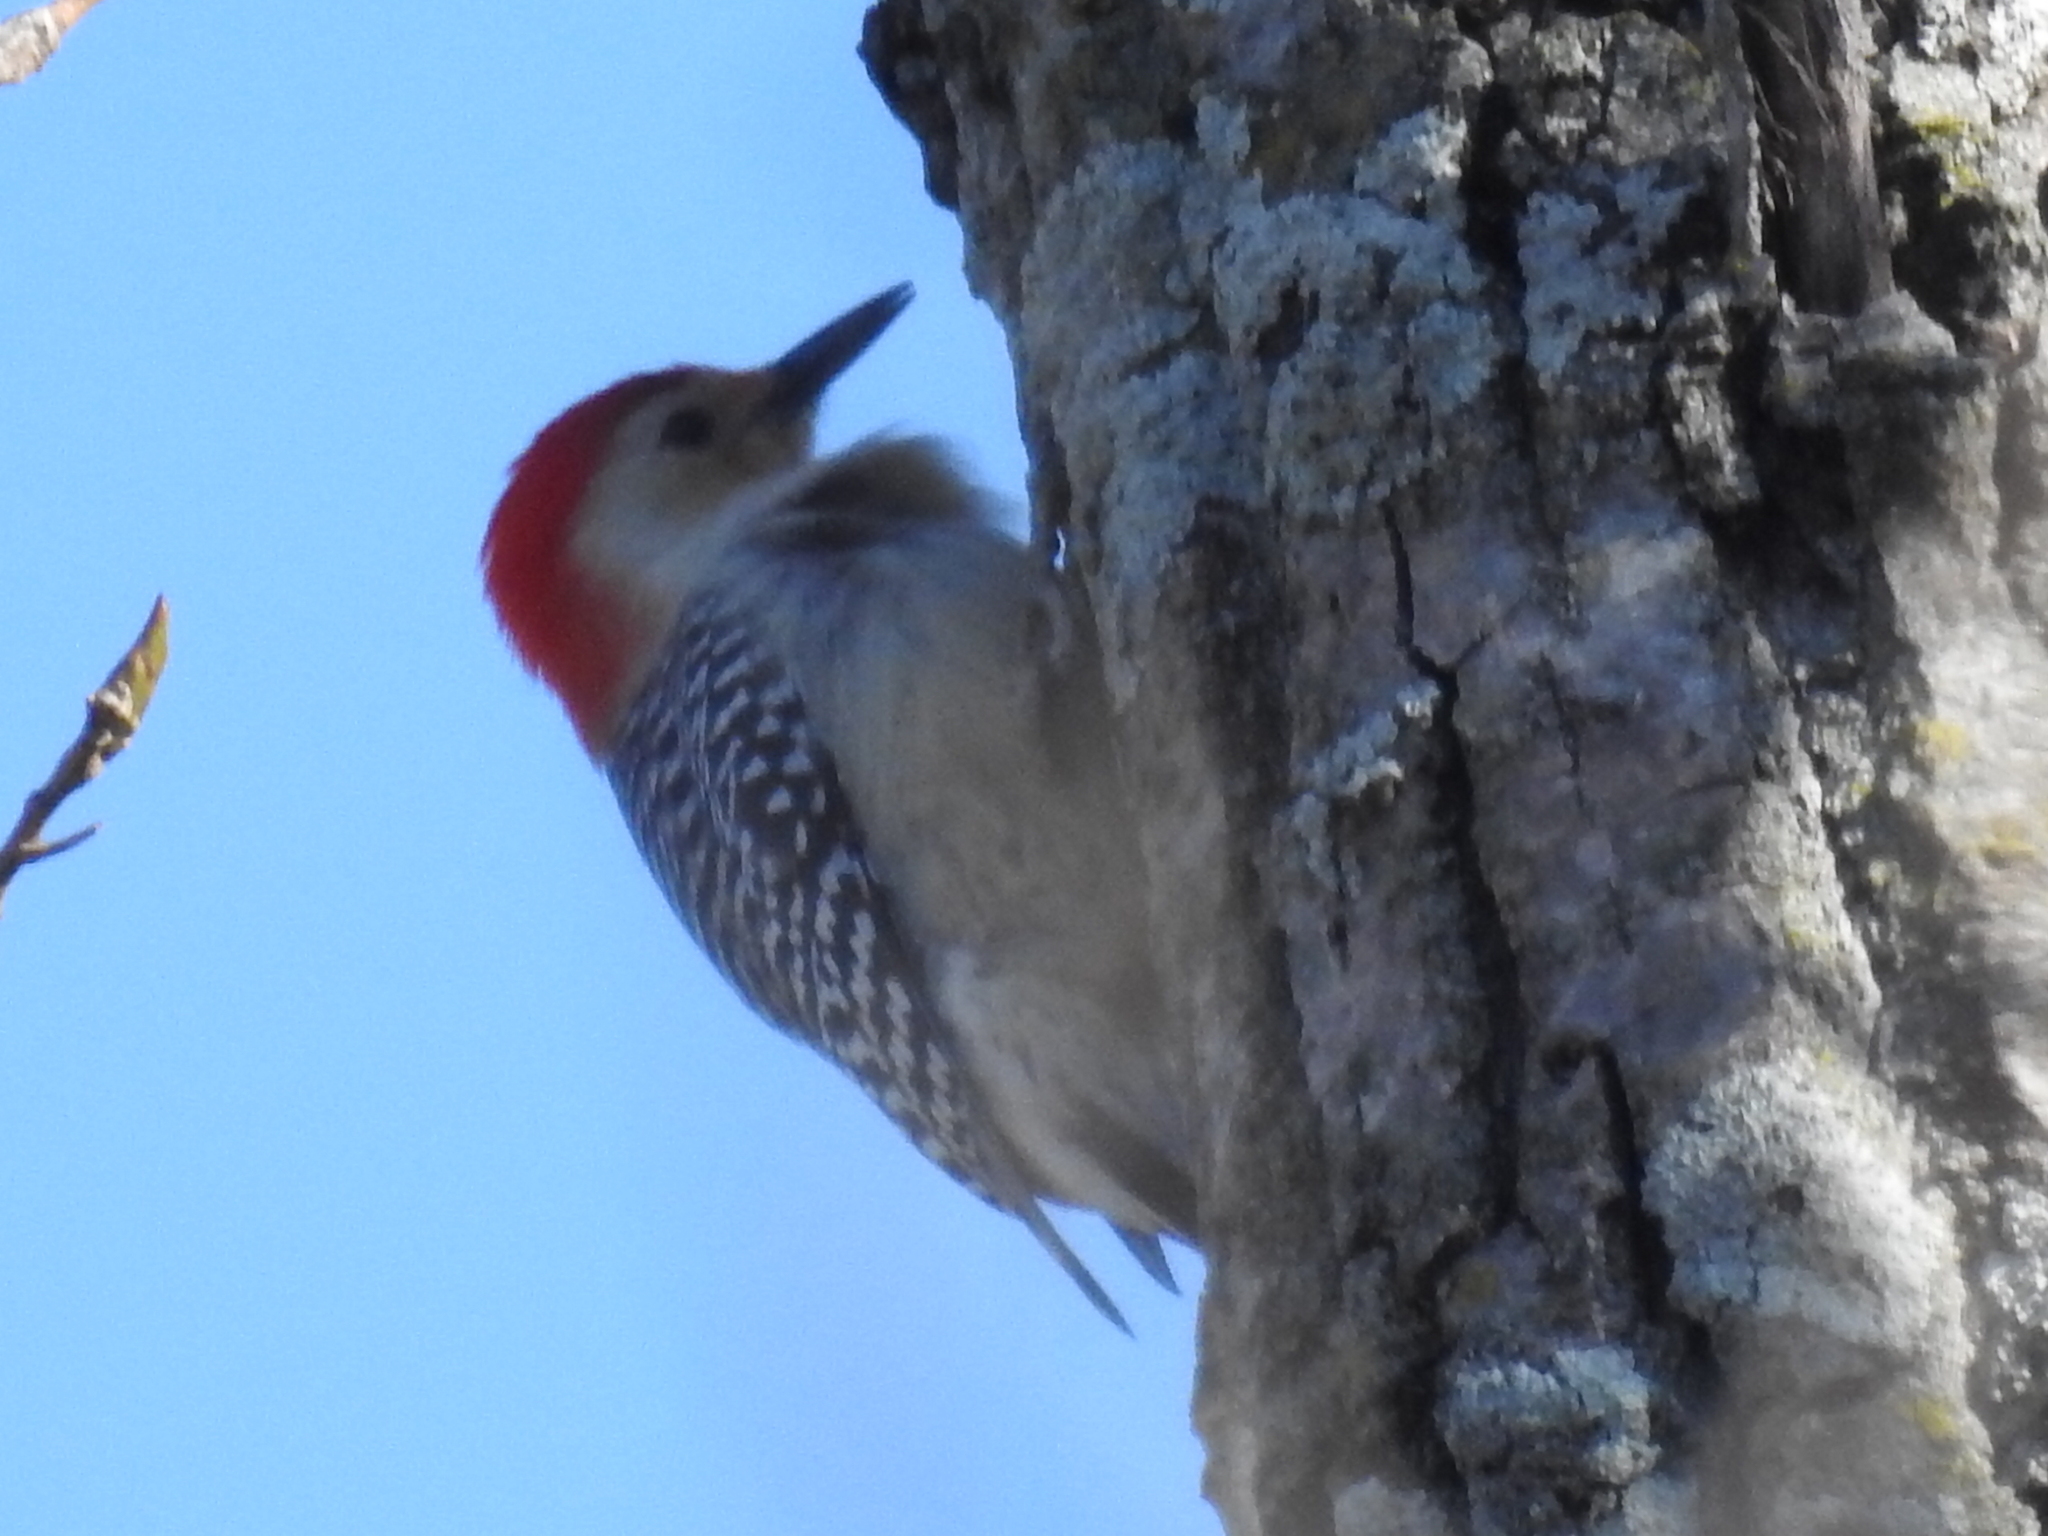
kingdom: Animalia
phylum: Chordata
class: Aves
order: Piciformes
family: Picidae
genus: Melanerpes
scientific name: Melanerpes carolinus
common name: Red-bellied woodpecker
